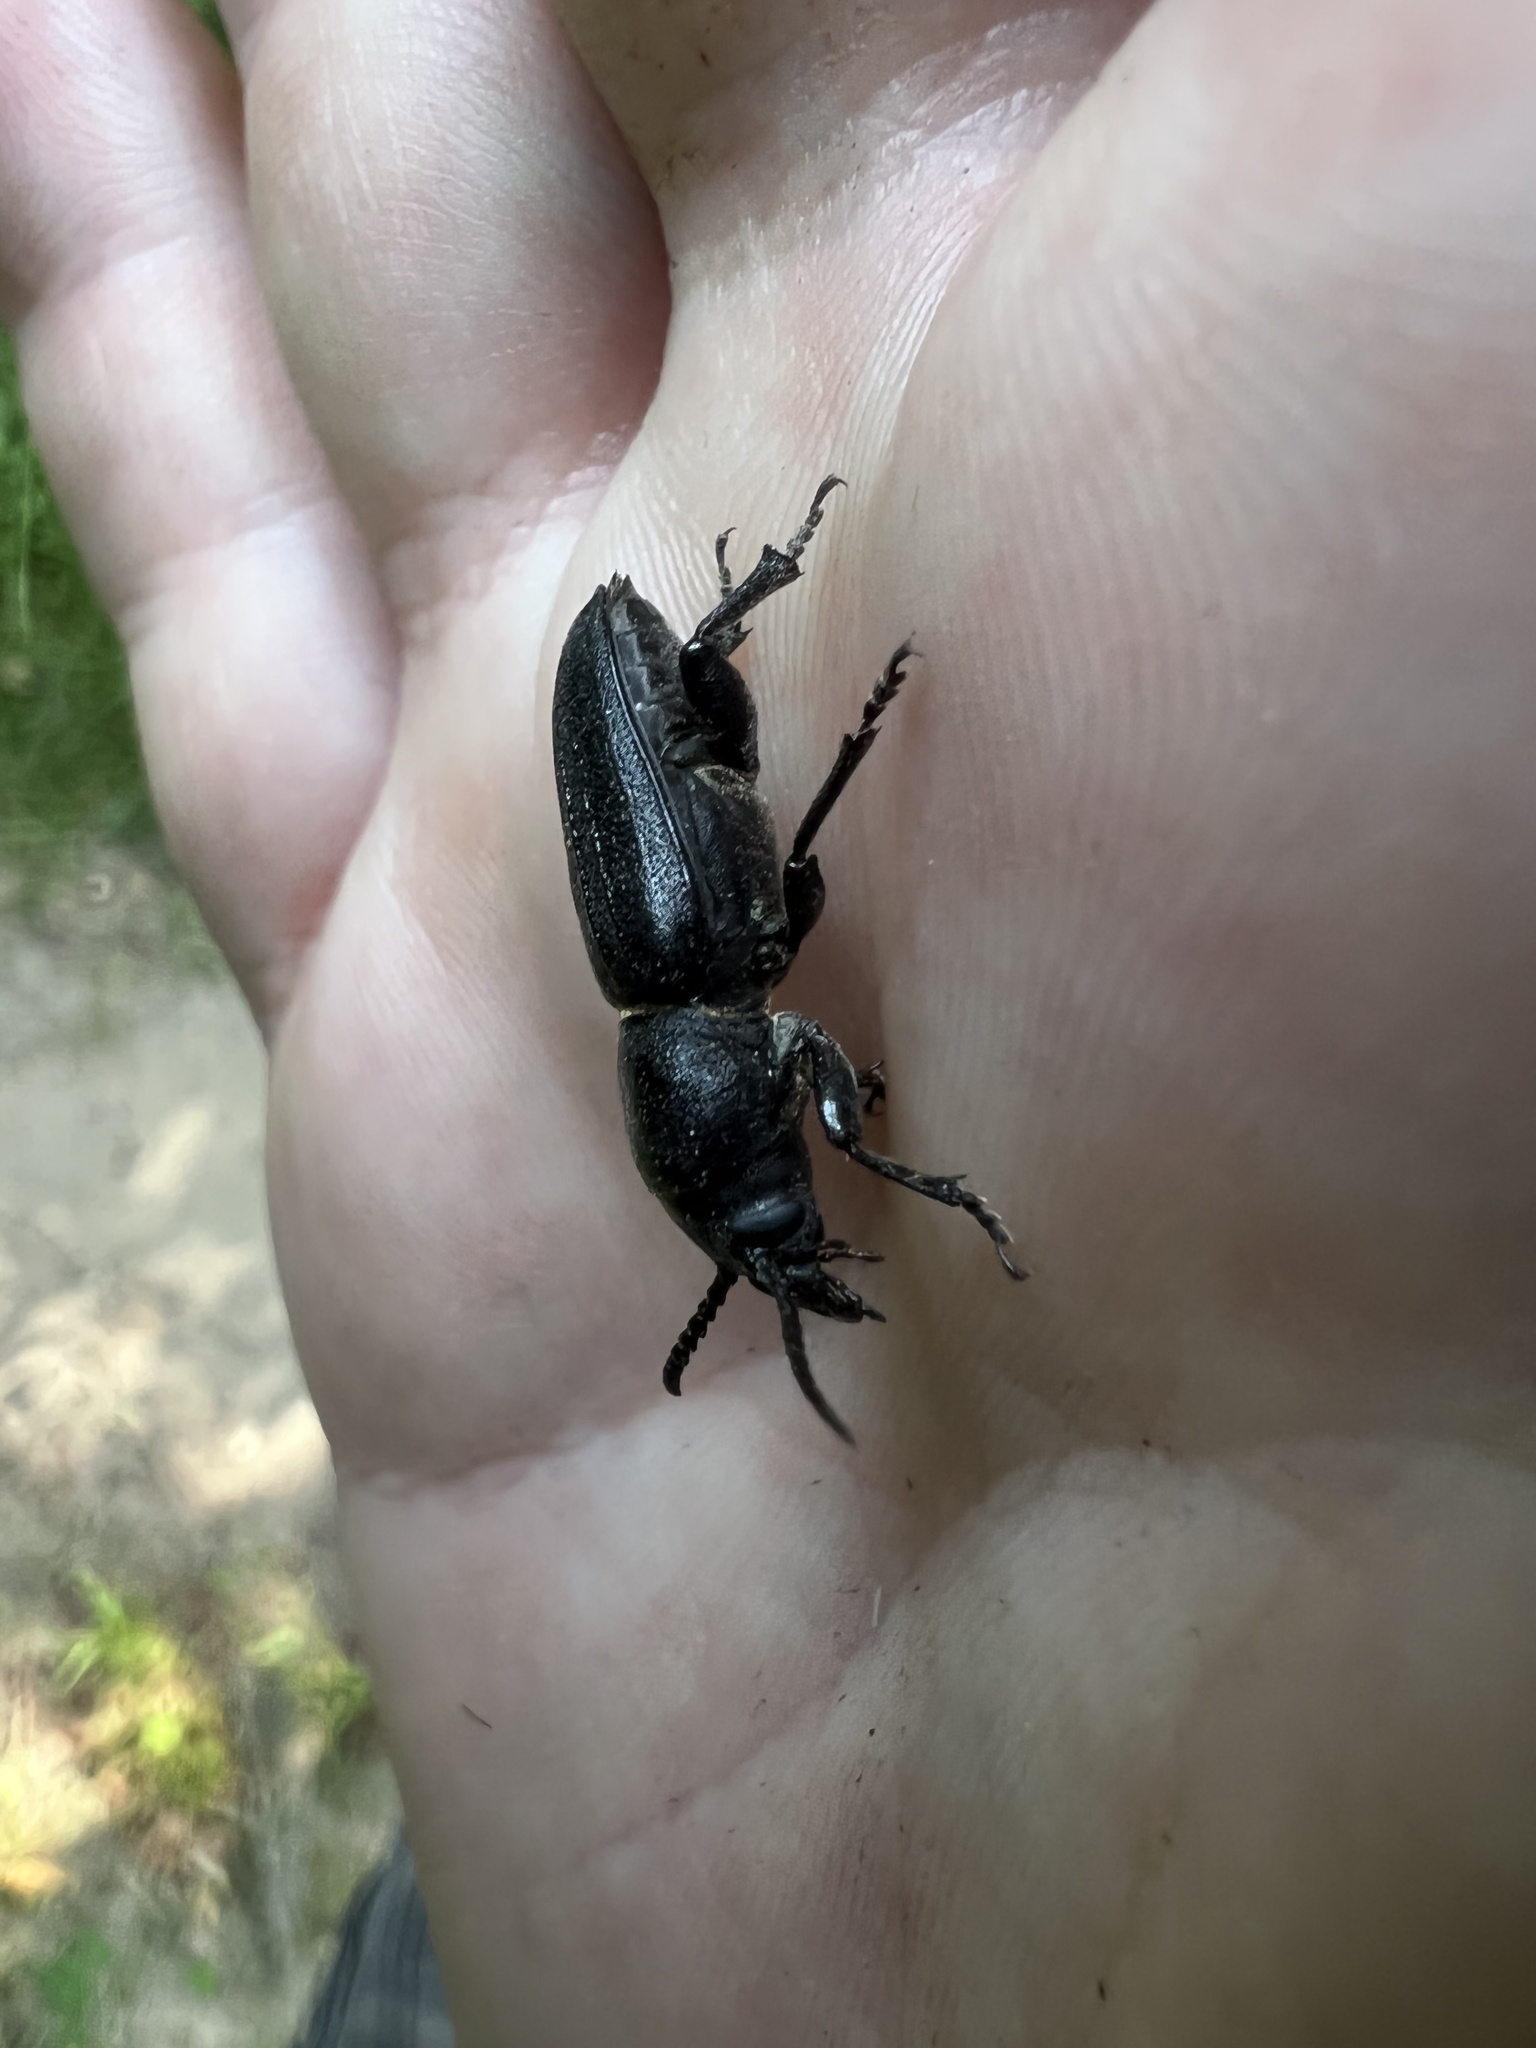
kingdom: Animalia
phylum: Arthropoda
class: Insecta
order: Coleoptera
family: Cerambycidae
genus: Spondylis
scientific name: Spondylis buprestoides
